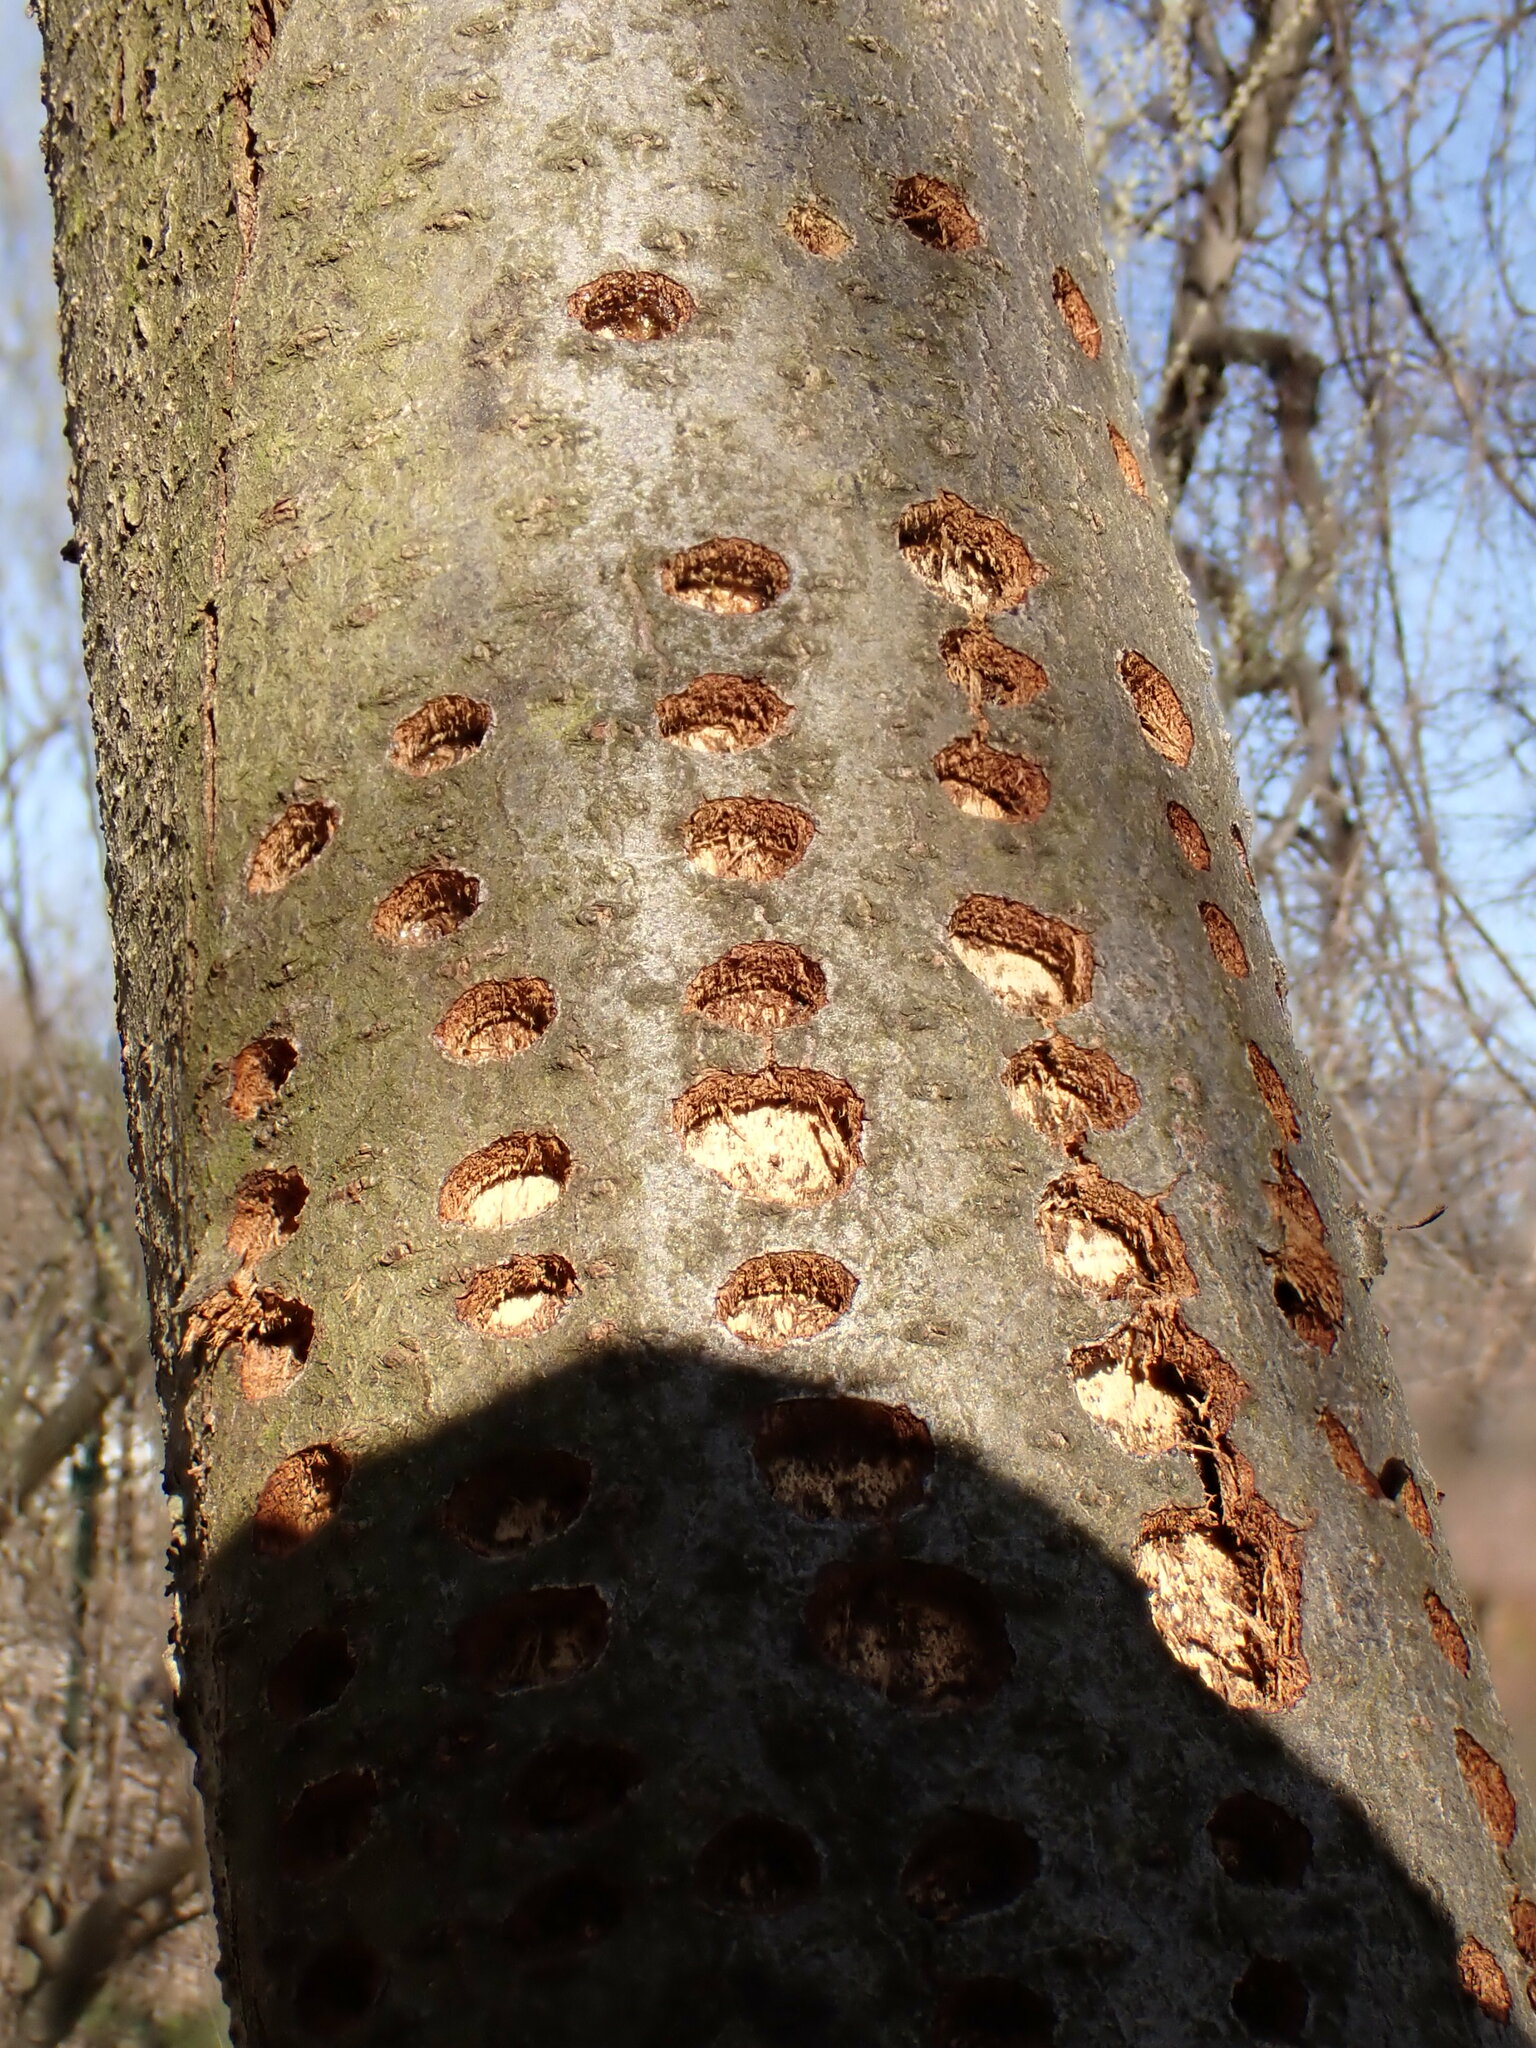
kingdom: Animalia
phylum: Chordata
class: Aves
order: Piciformes
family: Picidae
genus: Sphyrapicus
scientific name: Sphyrapicus varius
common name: Yellow-bellied sapsucker
